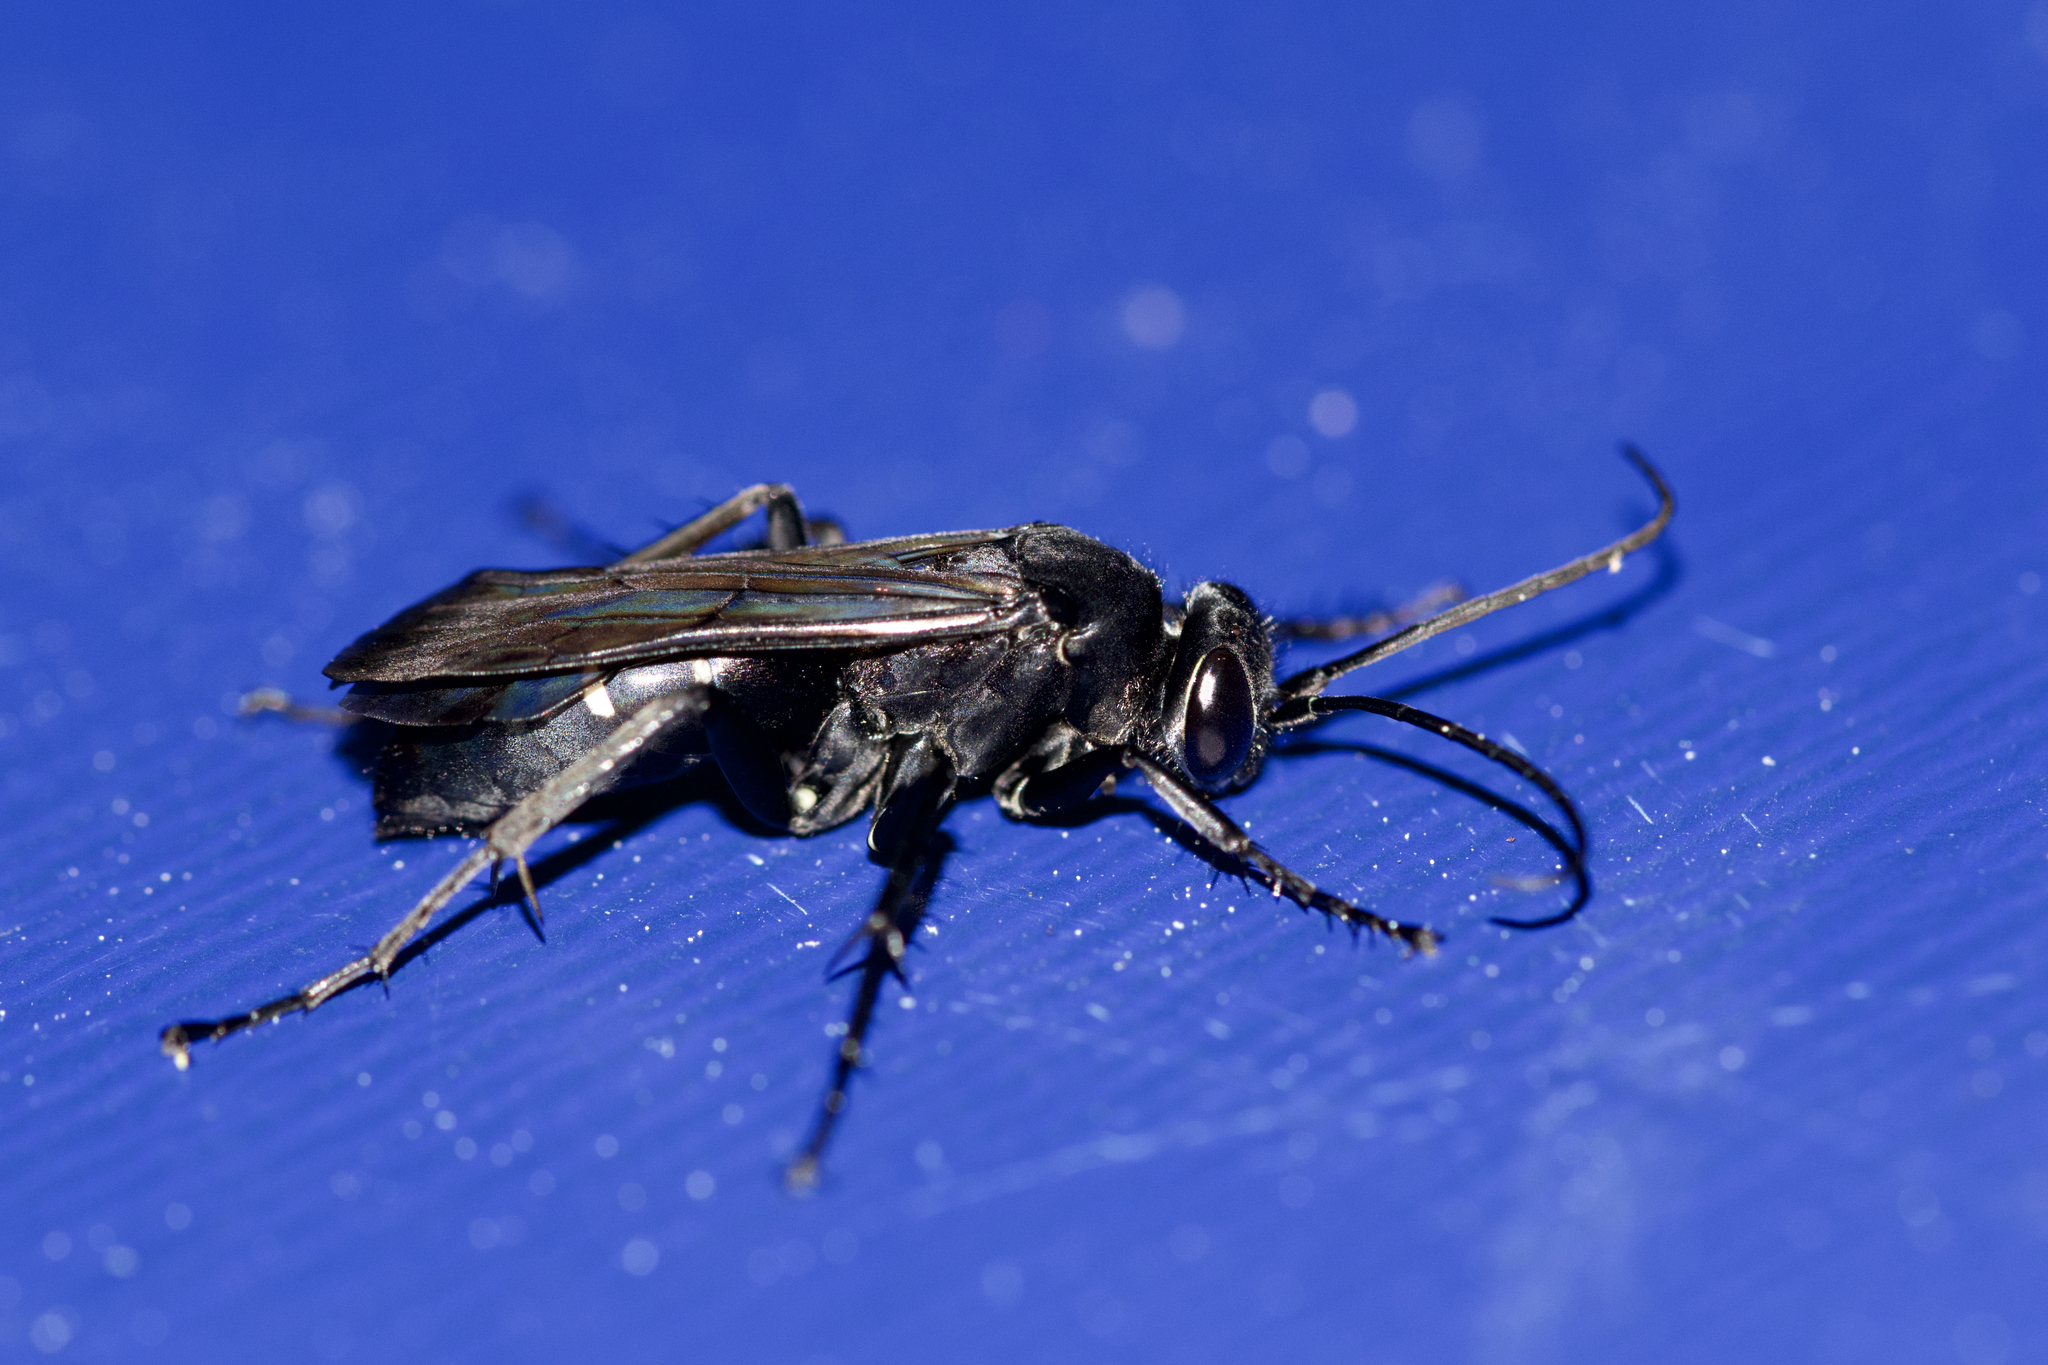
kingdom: Animalia
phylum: Arthropoda
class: Insecta
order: Hymenoptera
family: Pompilidae
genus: Episyron
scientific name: Episyron biguttatus
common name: Two-spotted spider wasp
